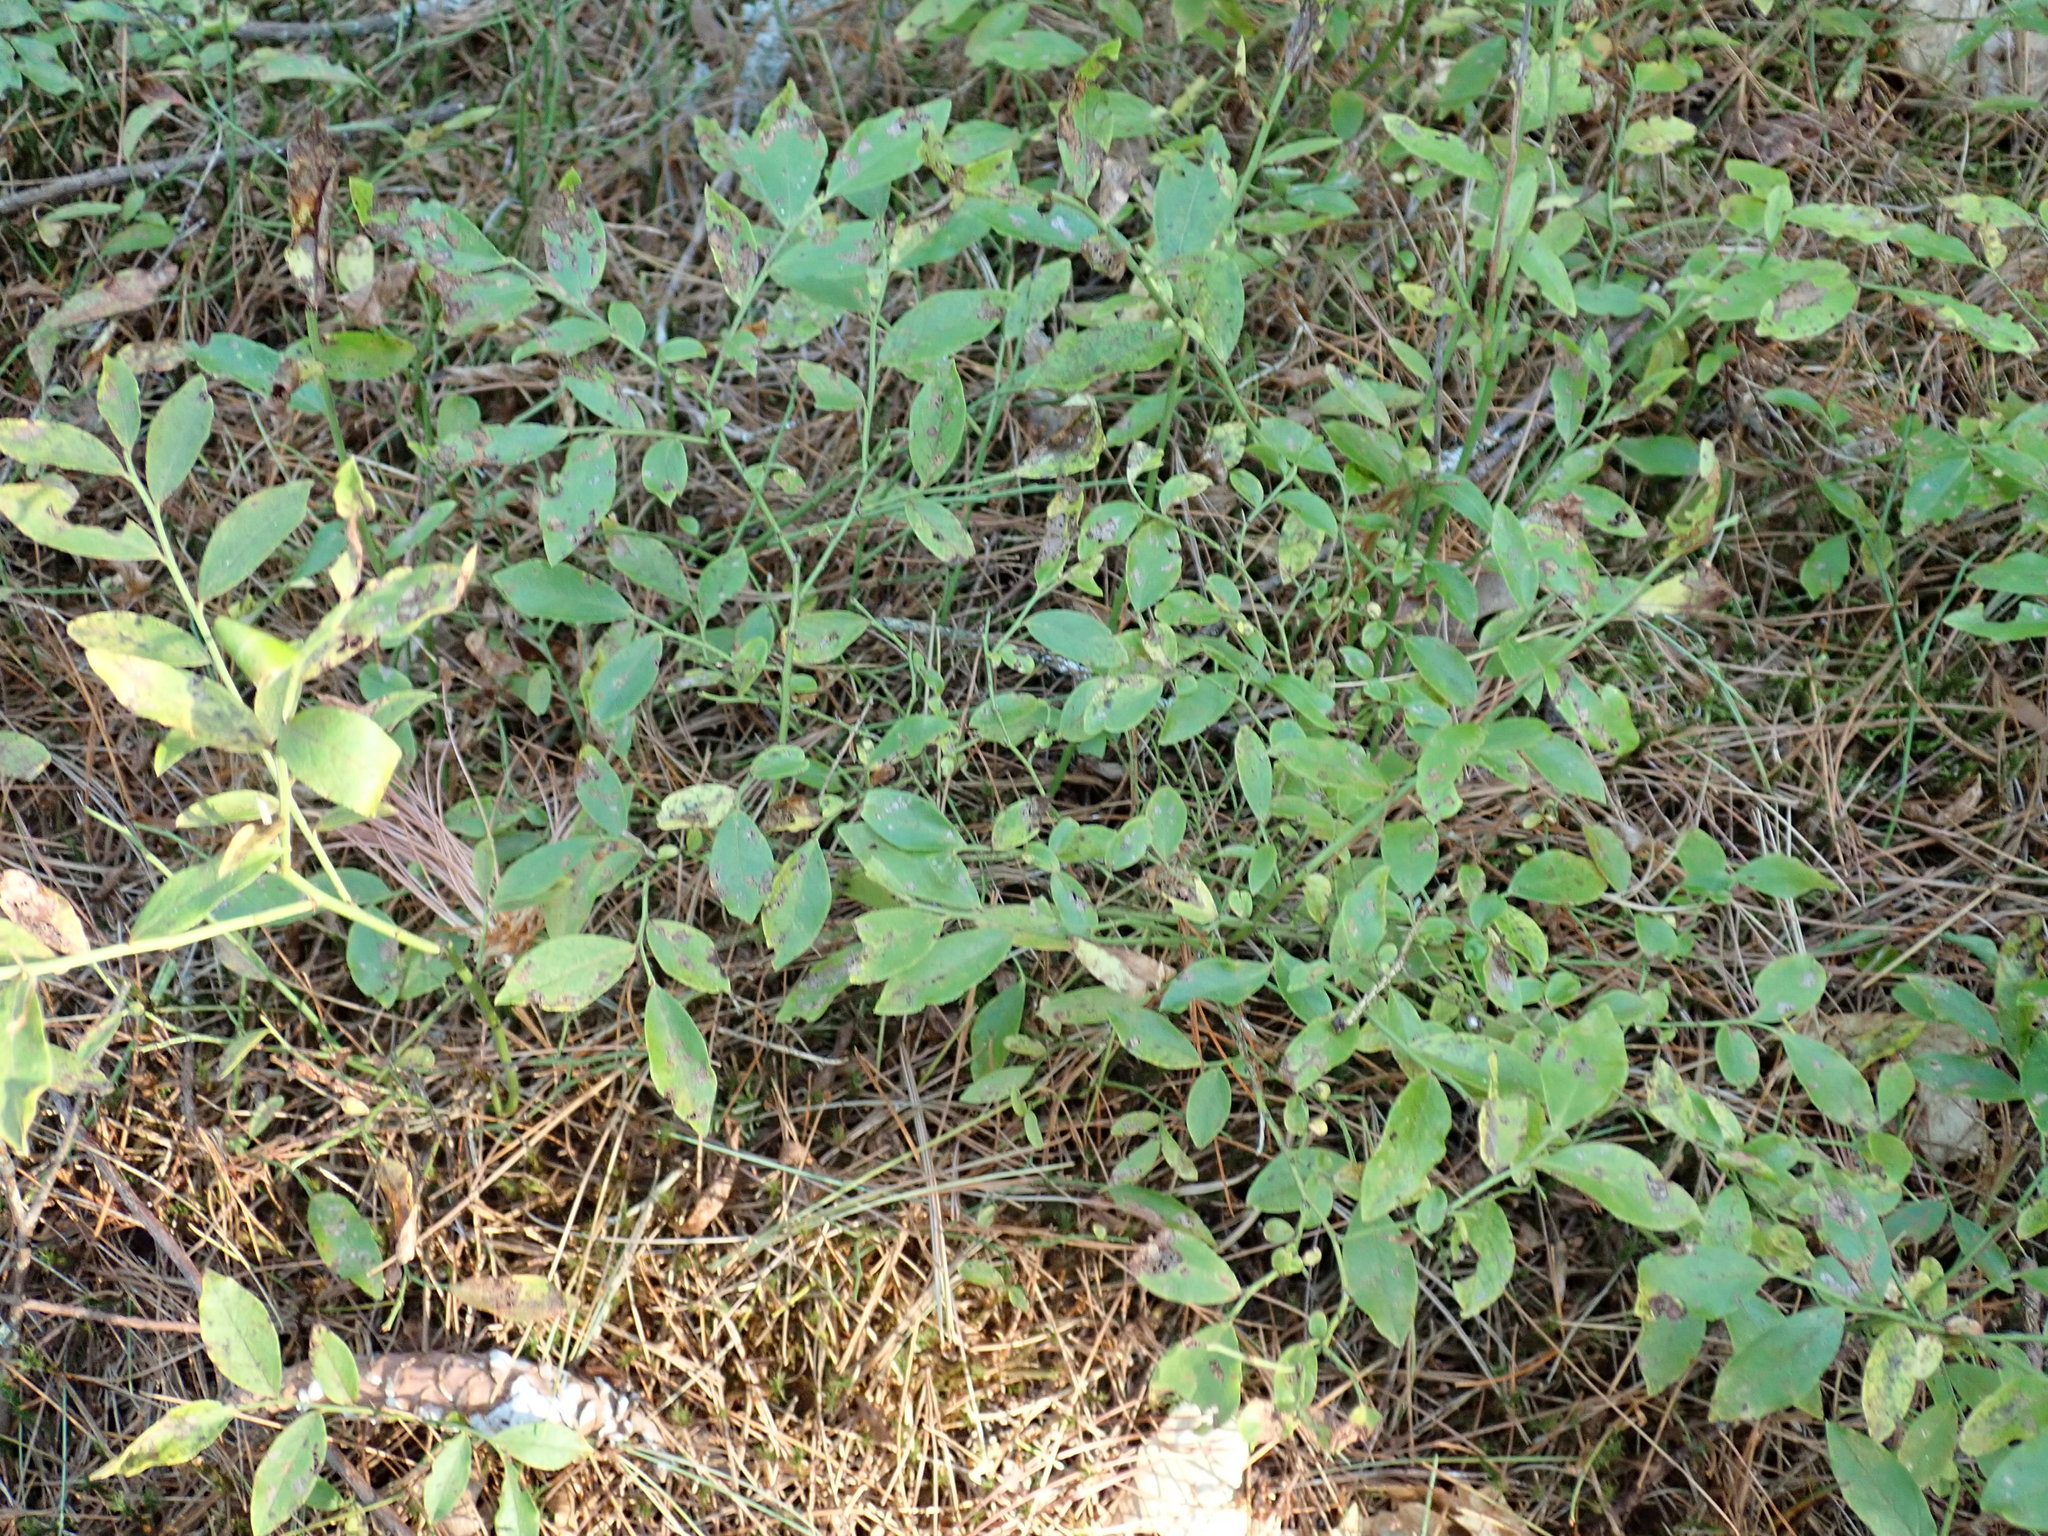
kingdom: Plantae
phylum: Tracheophyta
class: Magnoliopsida
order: Ericales
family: Ericaceae
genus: Vaccinium
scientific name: Vaccinium angustifolium
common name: Early lowbush blueberry
